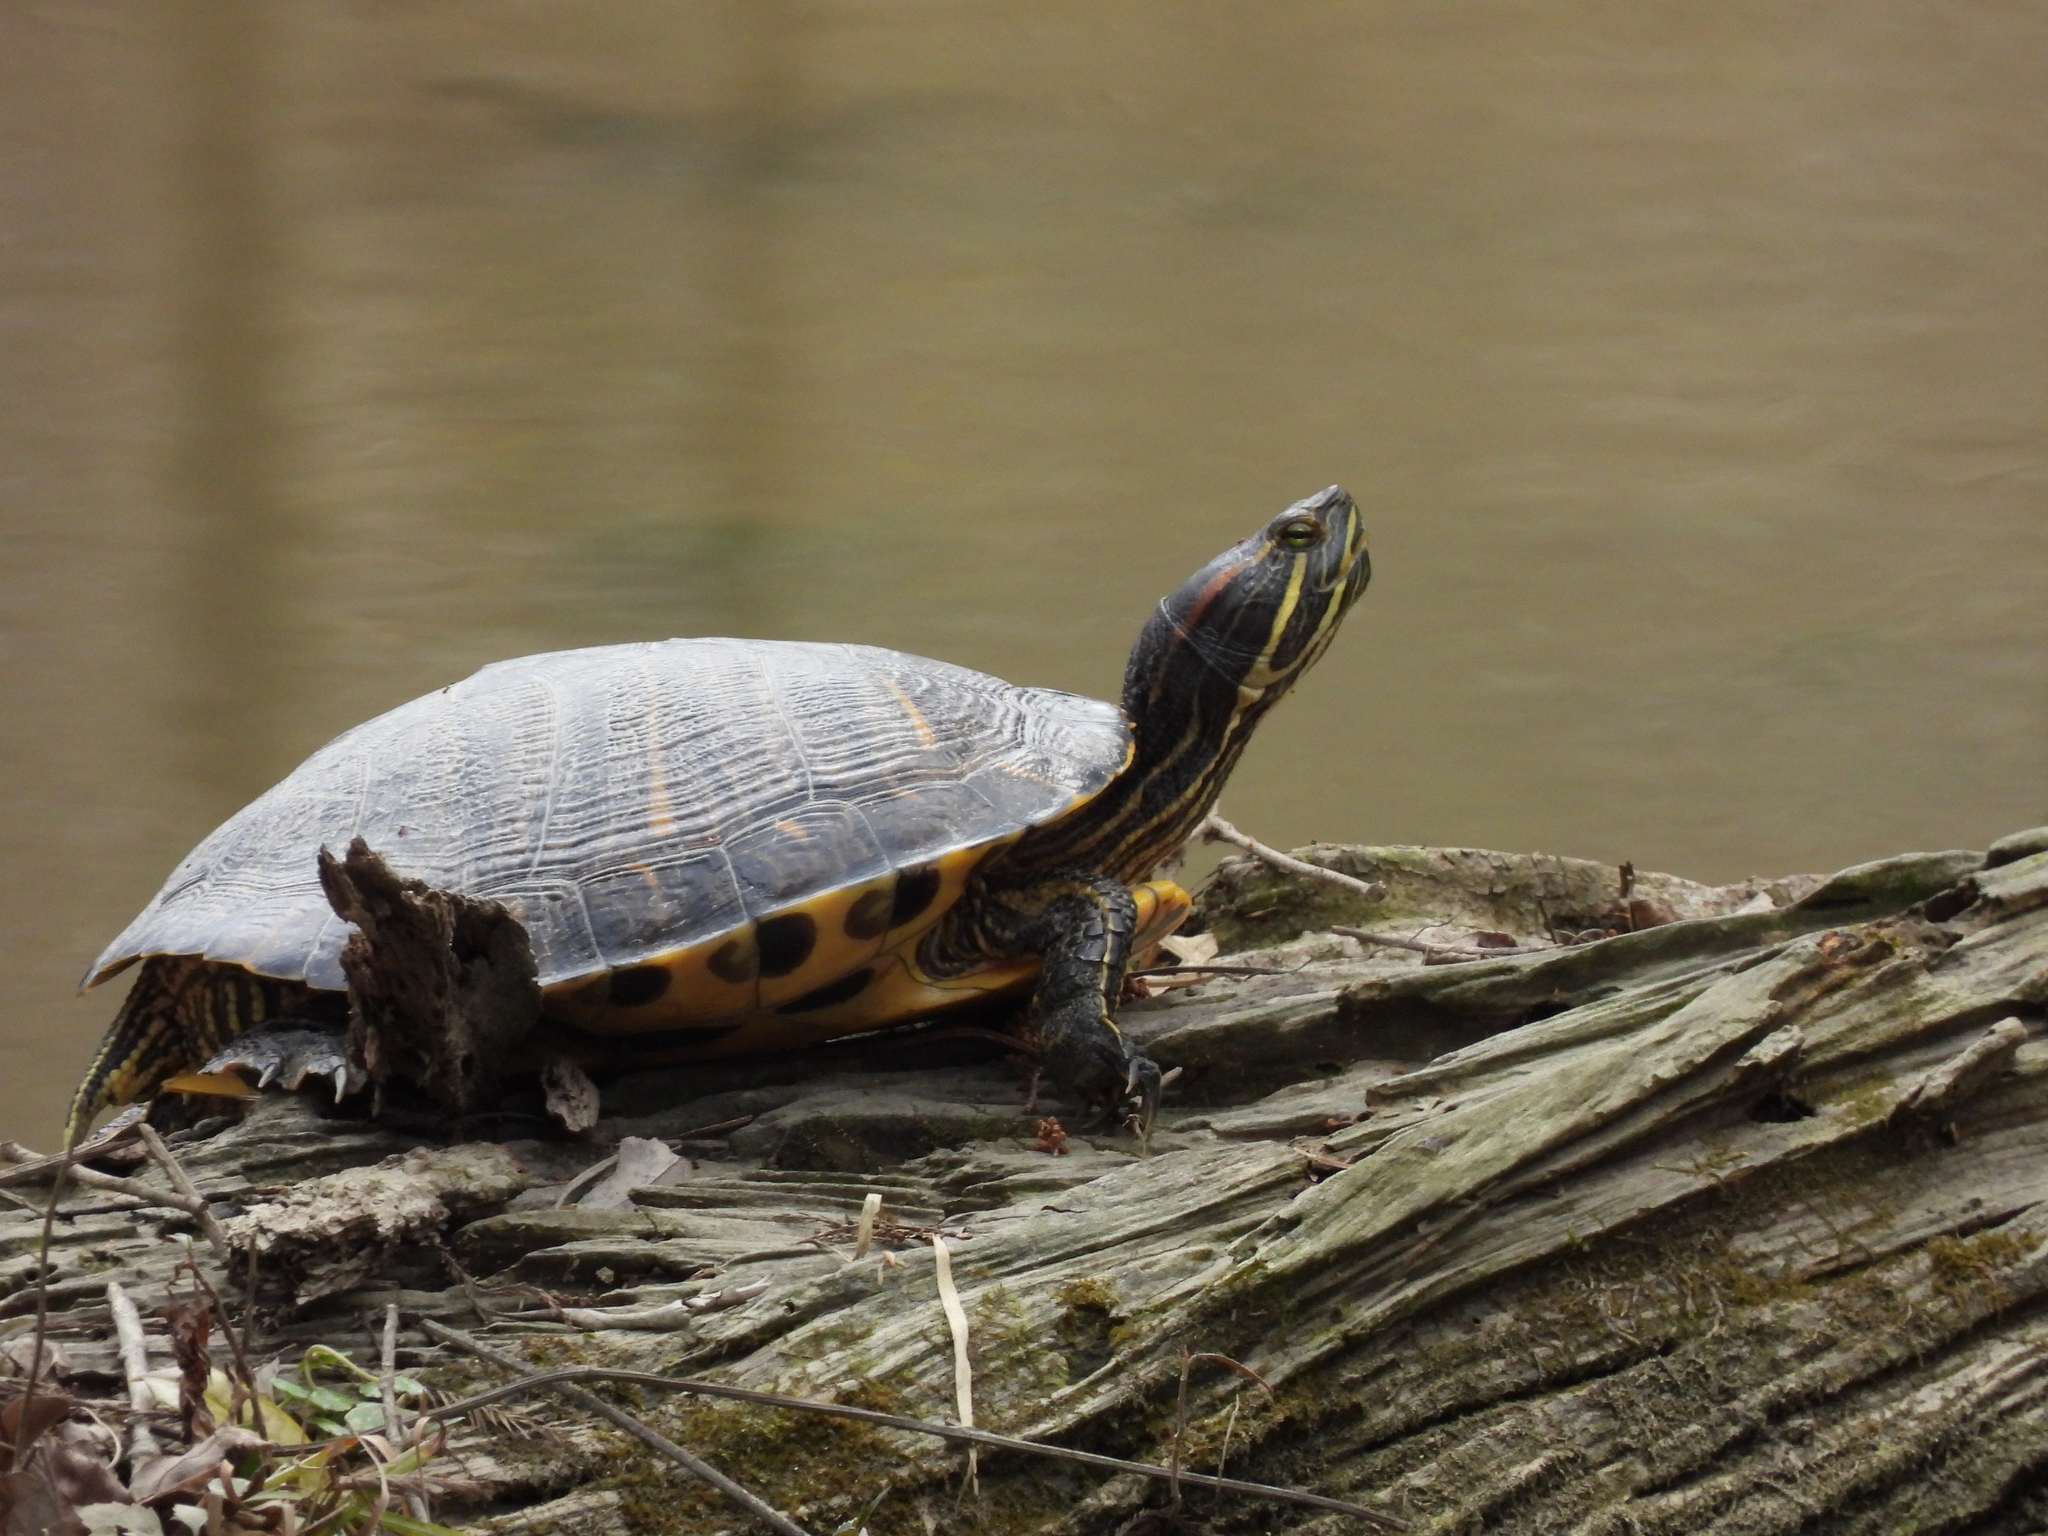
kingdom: Animalia
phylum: Chordata
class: Testudines
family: Emydidae
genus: Trachemys
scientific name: Trachemys scripta
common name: Slider
